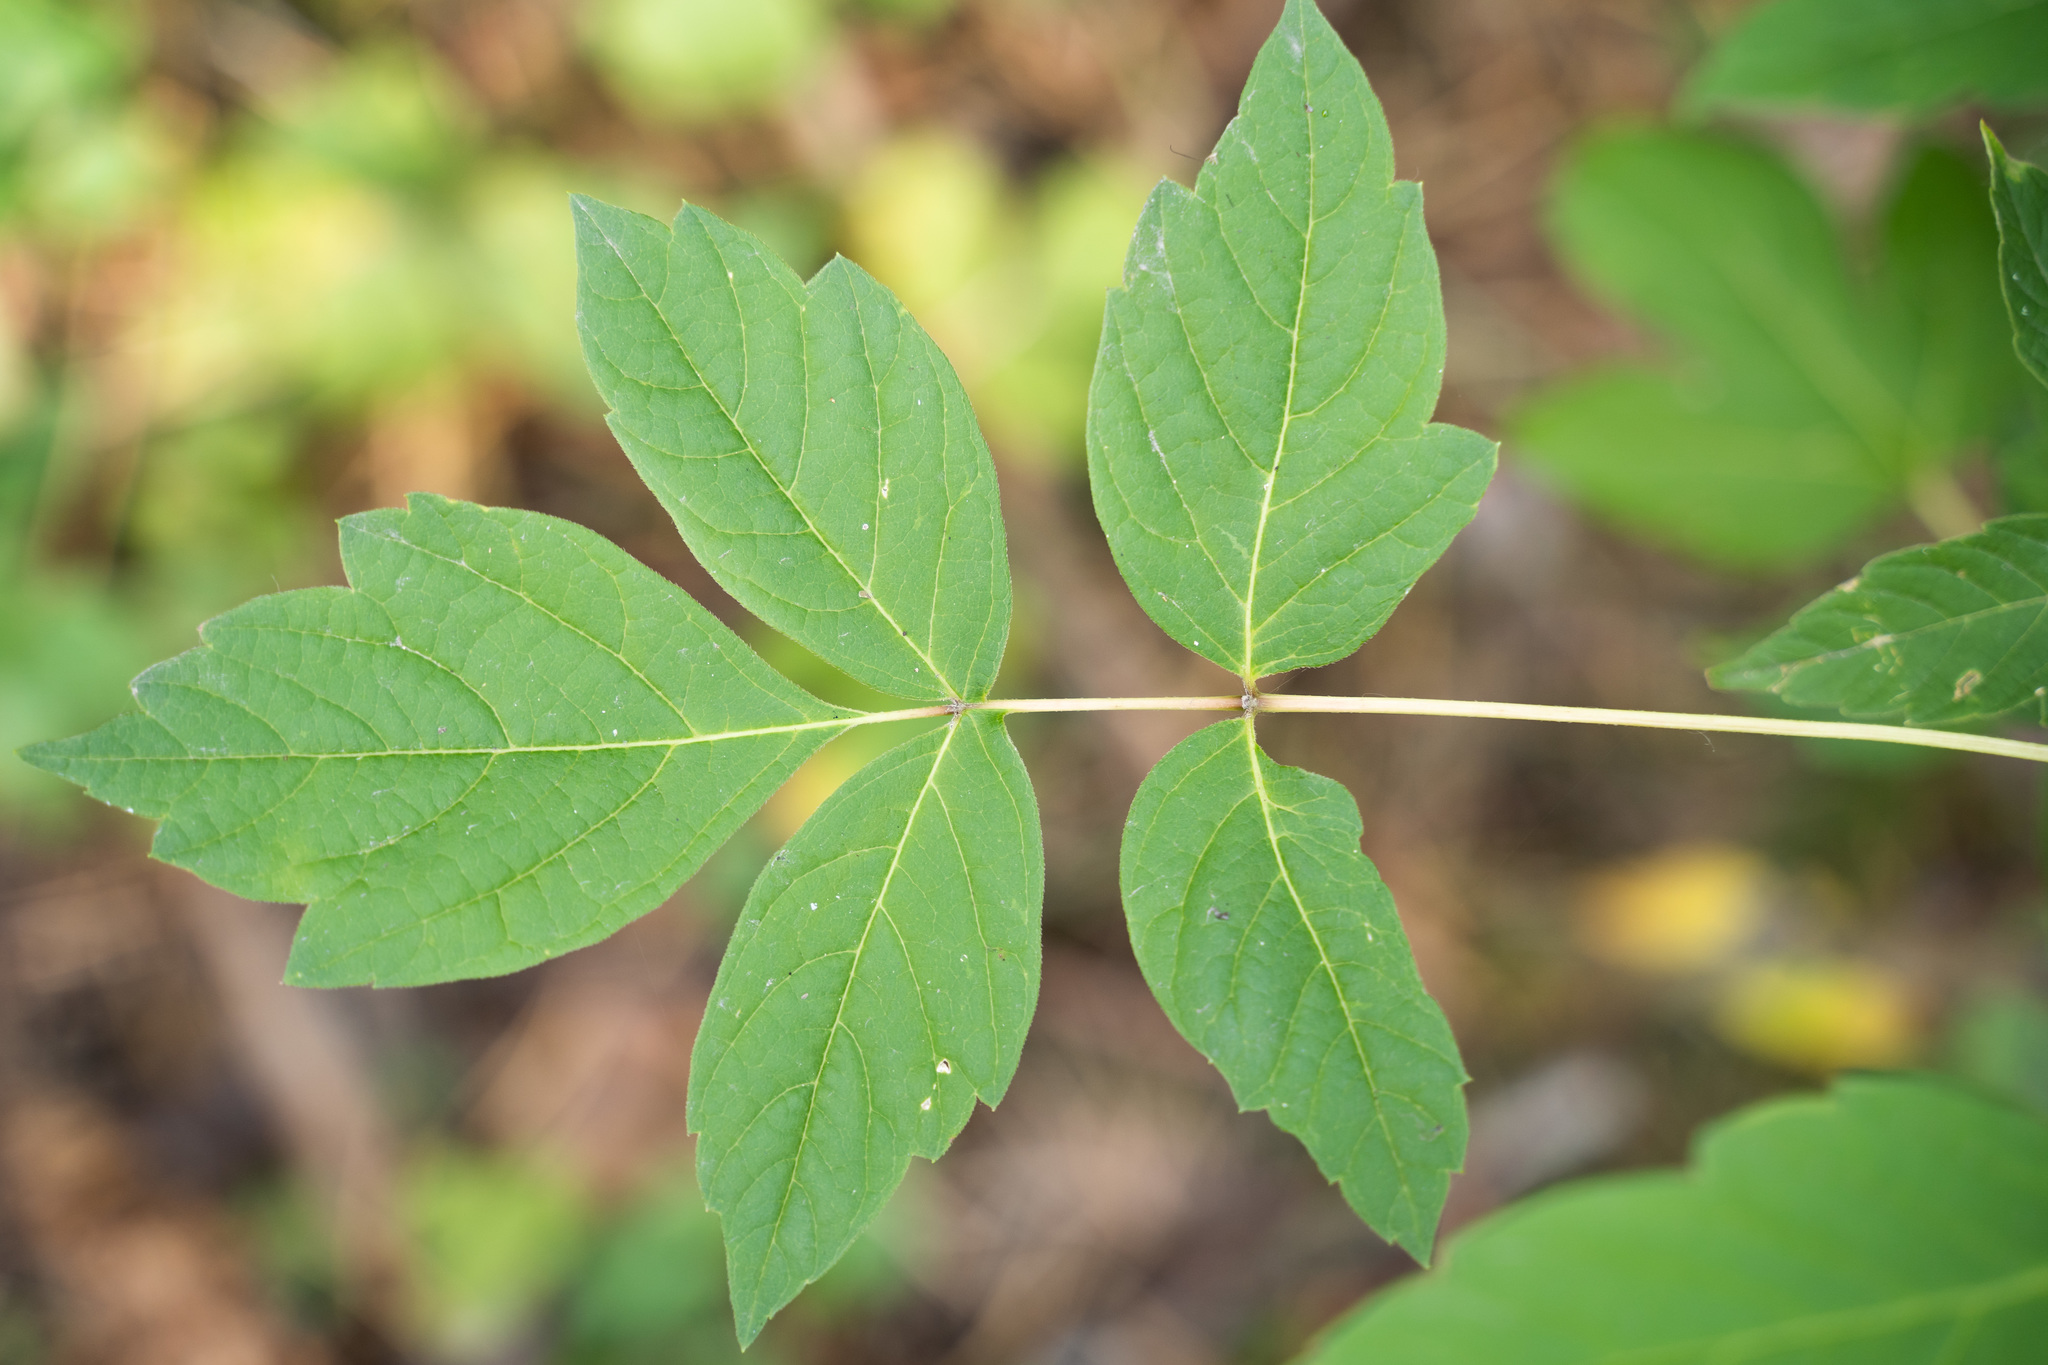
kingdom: Plantae
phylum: Tracheophyta
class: Magnoliopsida
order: Sapindales
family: Sapindaceae
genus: Acer
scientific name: Acer negundo
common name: Ashleaf maple
